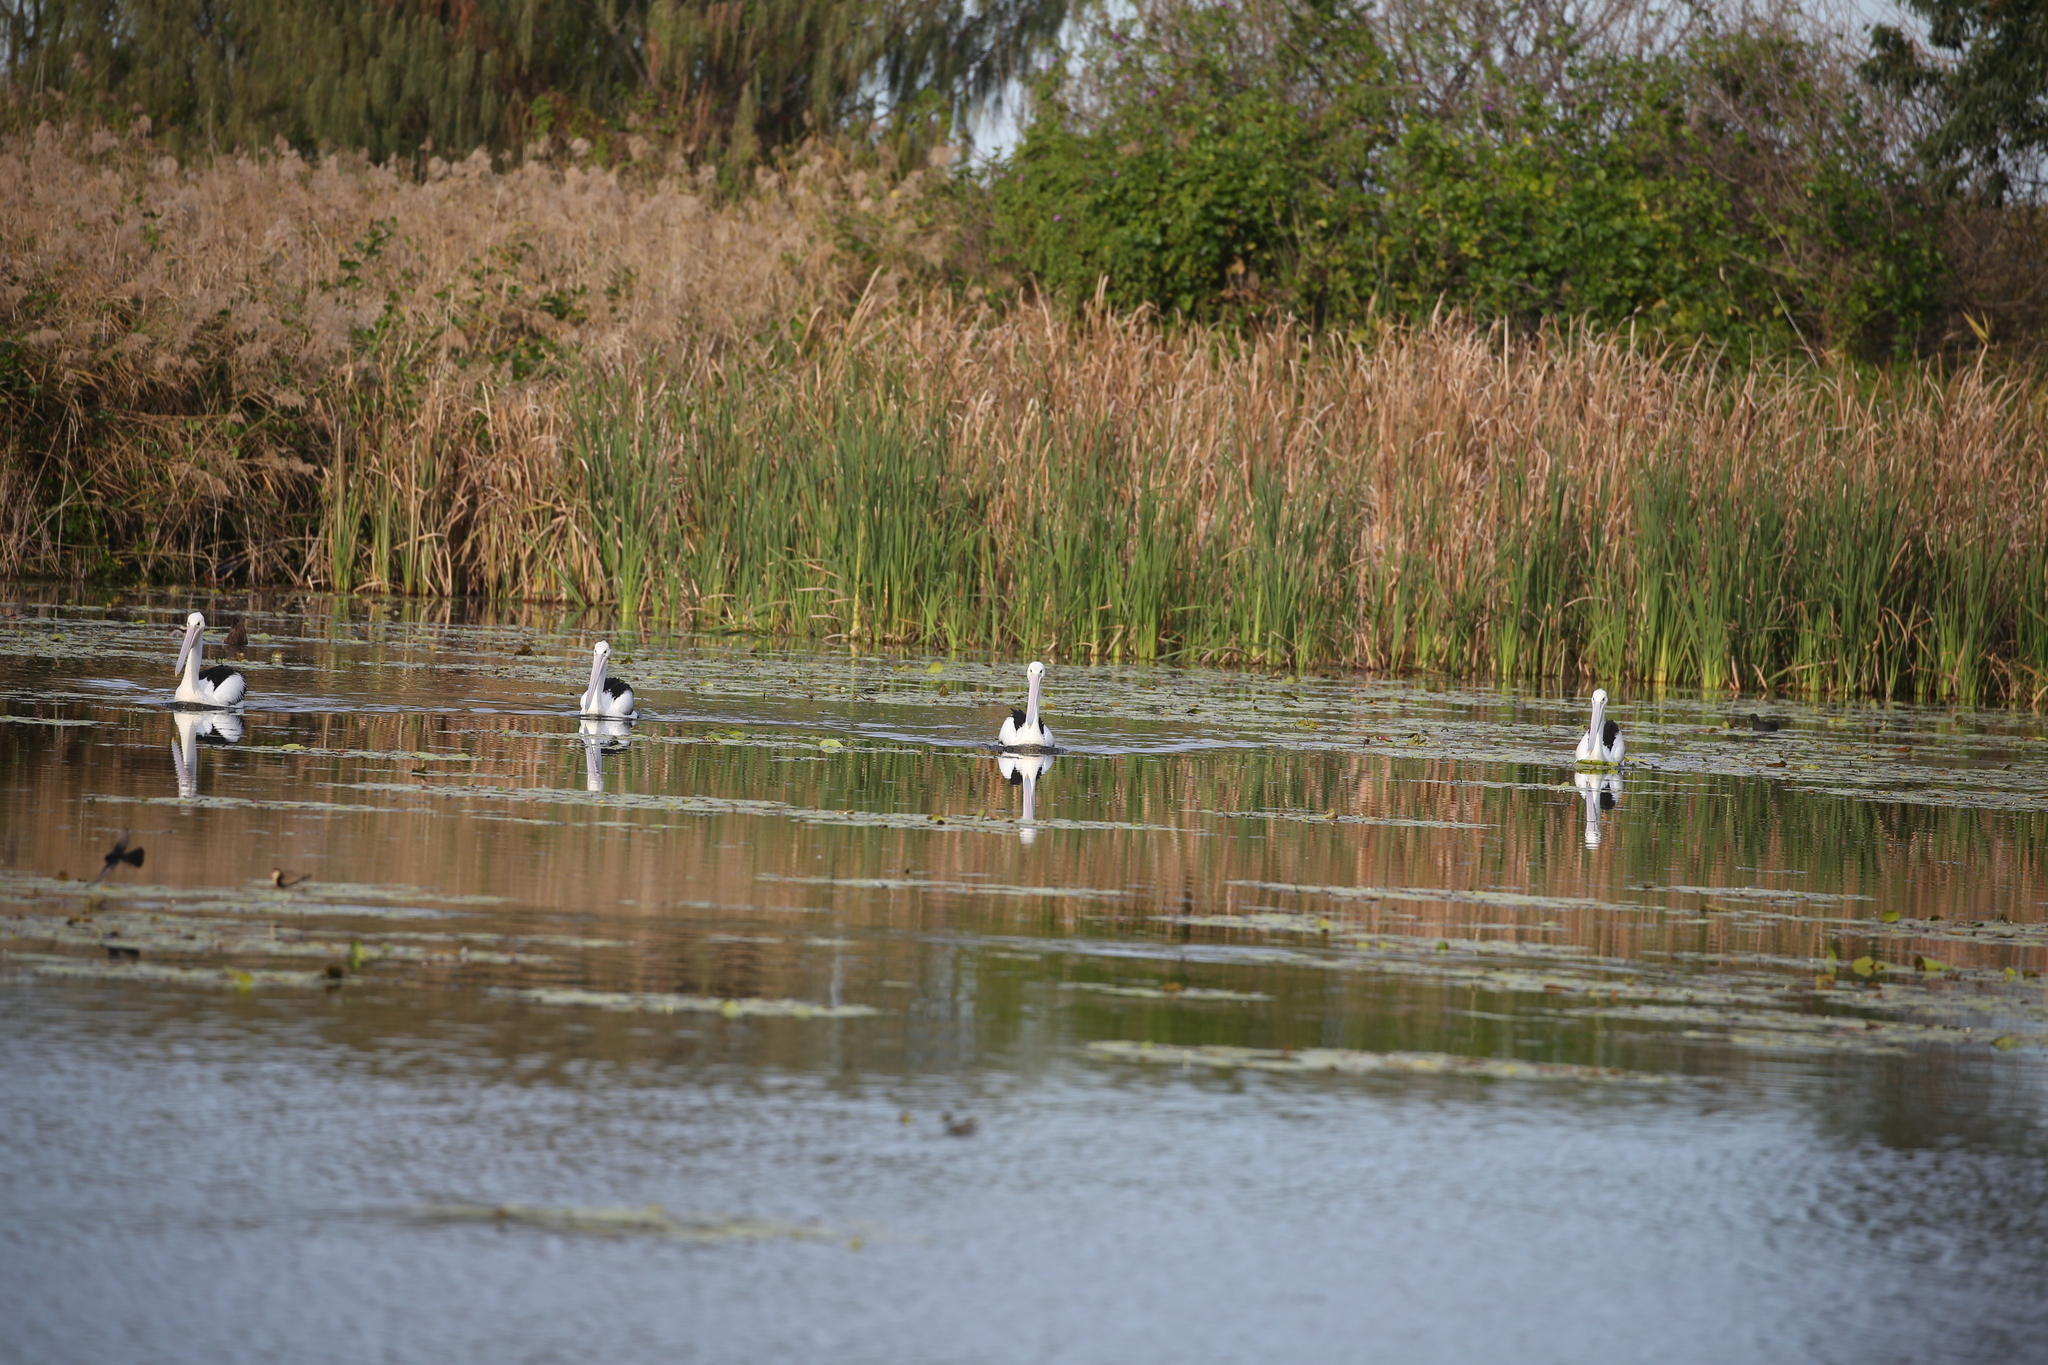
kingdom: Animalia
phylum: Chordata
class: Aves
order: Pelecaniformes
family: Pelecanidae
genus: Pelecanus
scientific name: Pelecanus conspicillatus
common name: Australian pelican
